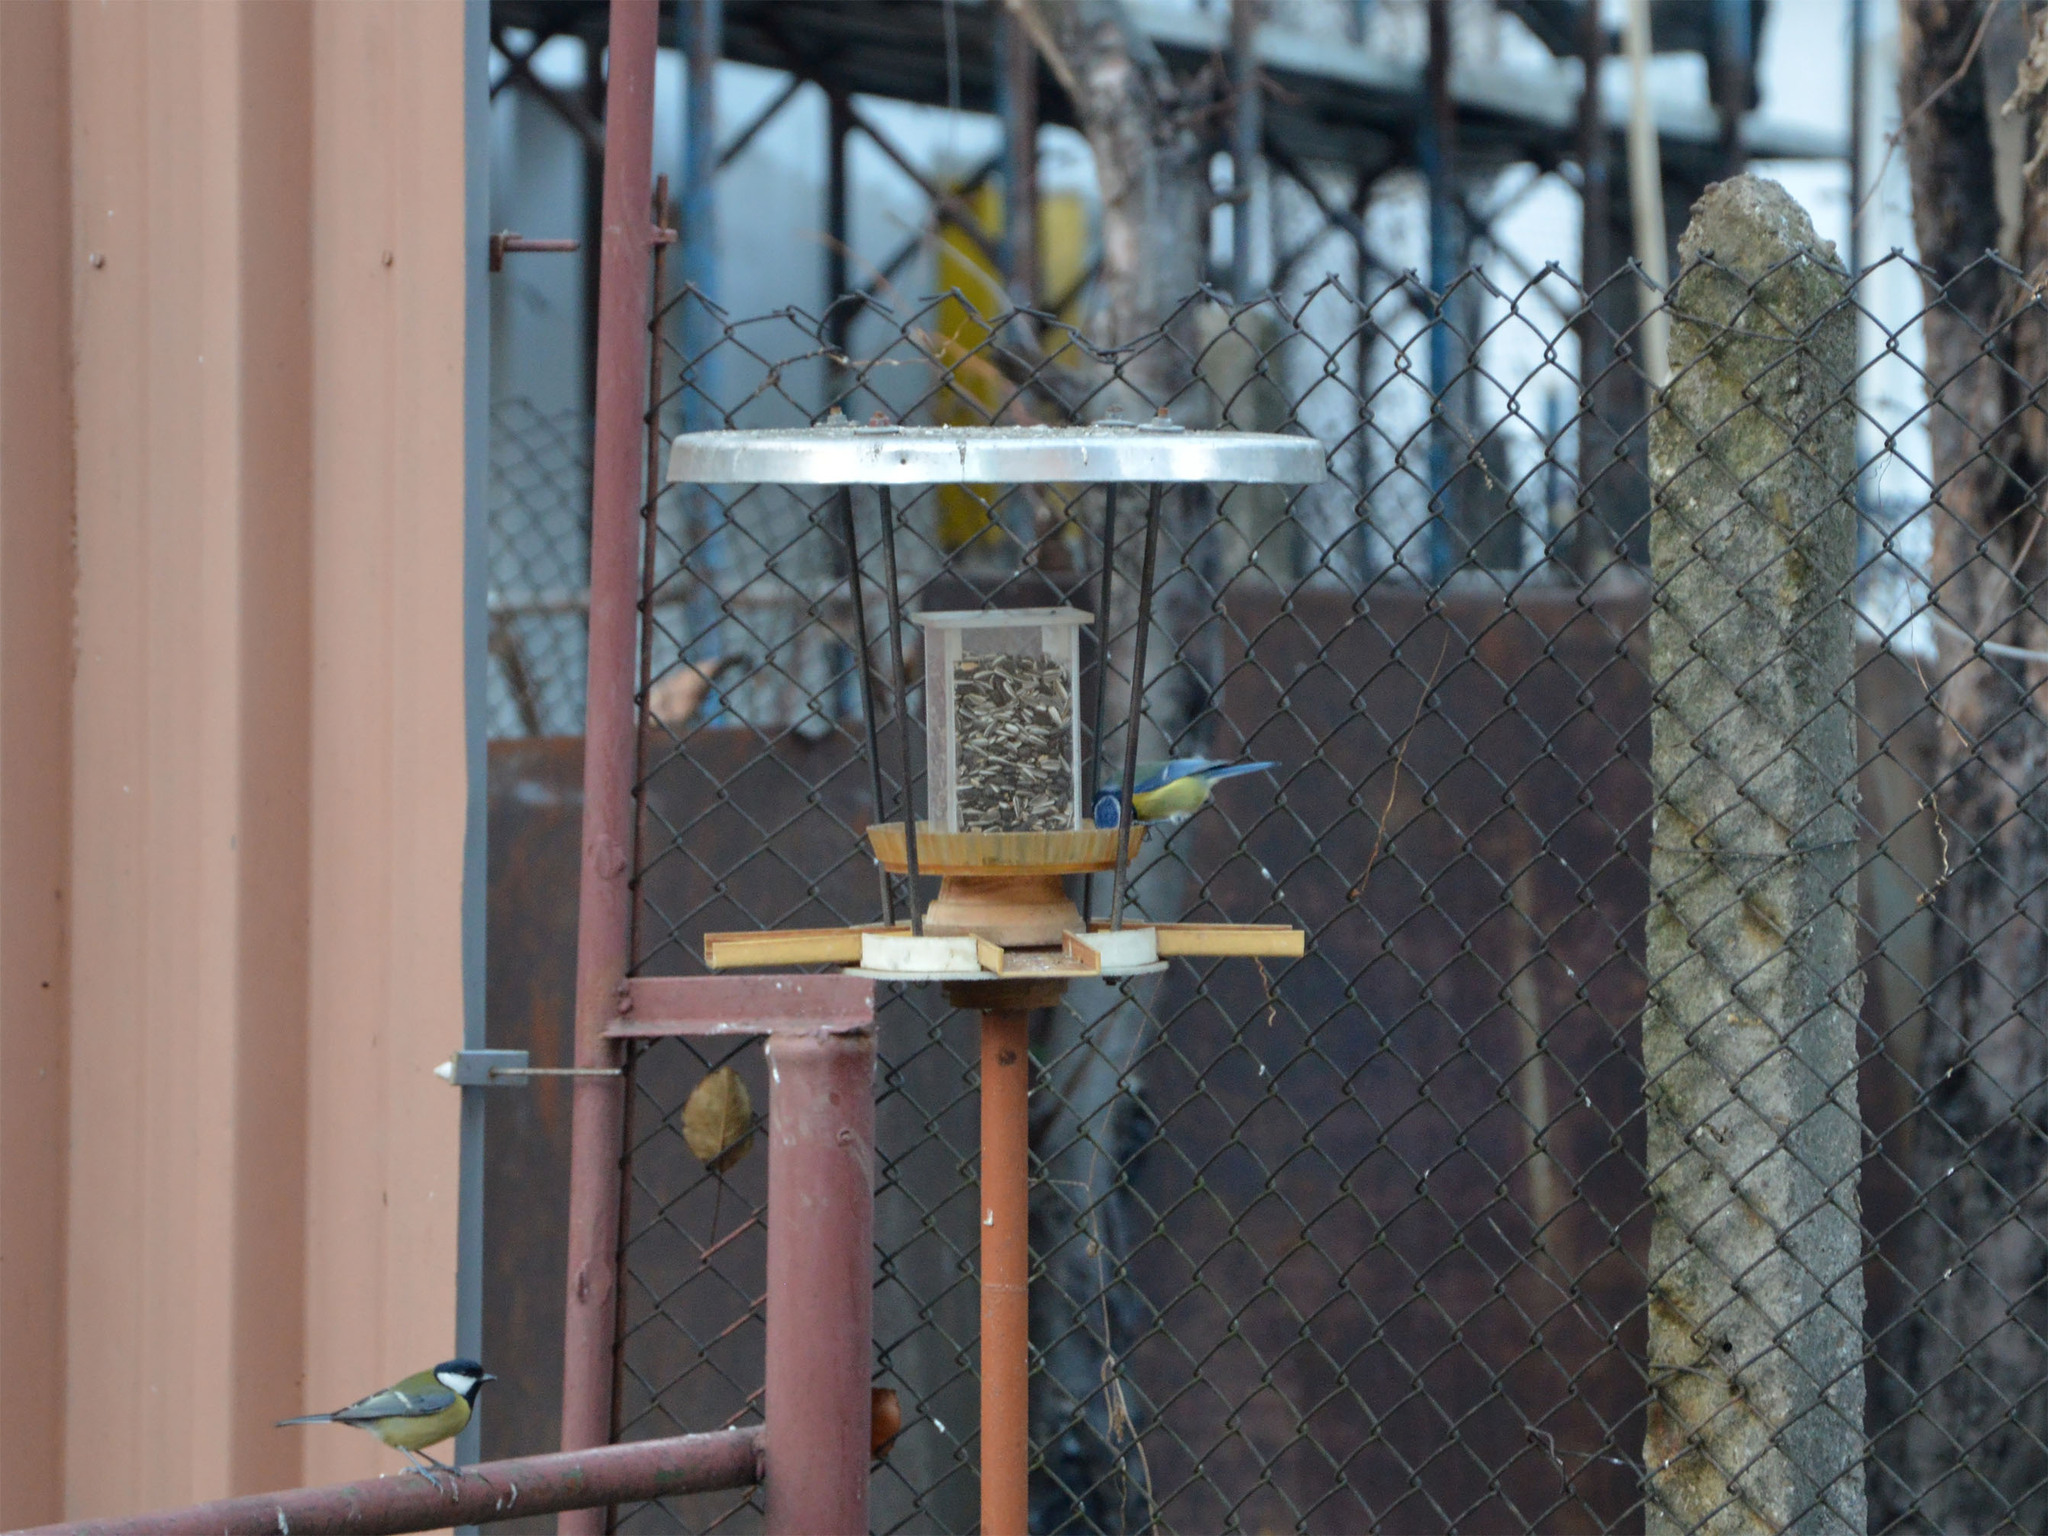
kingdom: Animalia
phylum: Chordata
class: Aves
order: Passeriformes
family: Paridae
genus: Cyanistes
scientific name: Cyanistes caeruleus
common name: Eurasian blue tit
